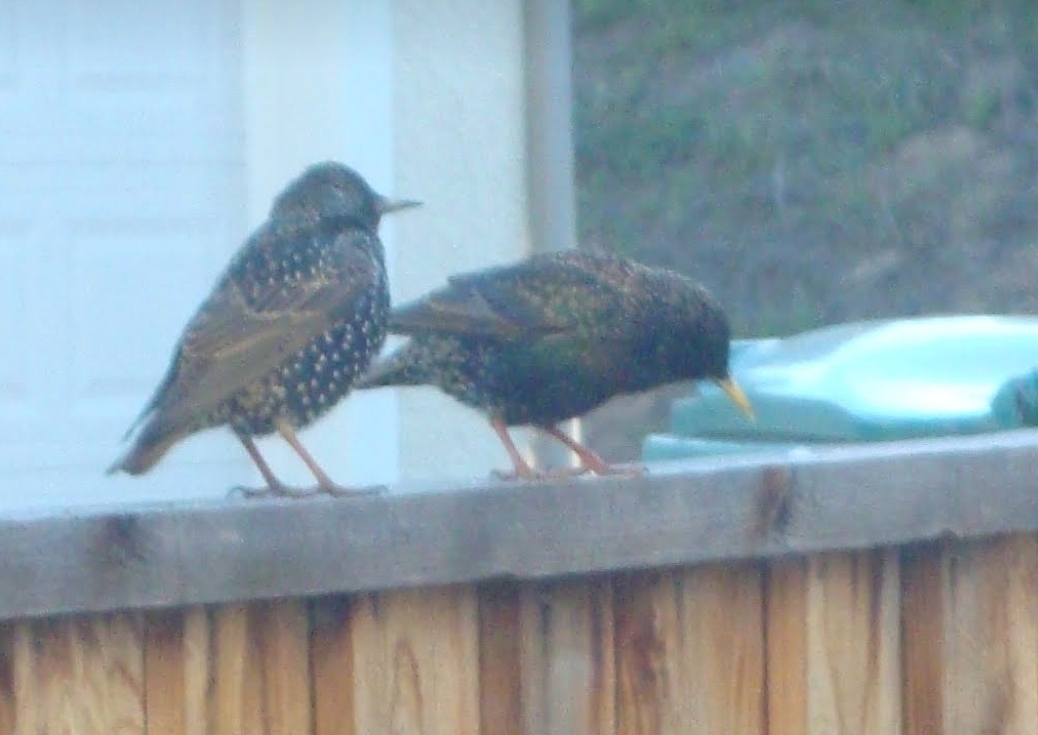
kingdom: Animalia
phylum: Chordata
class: Aves
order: Passeriformes
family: Sturnidae
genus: Sturnus
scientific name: Sturnus vulgaris
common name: Common starling
